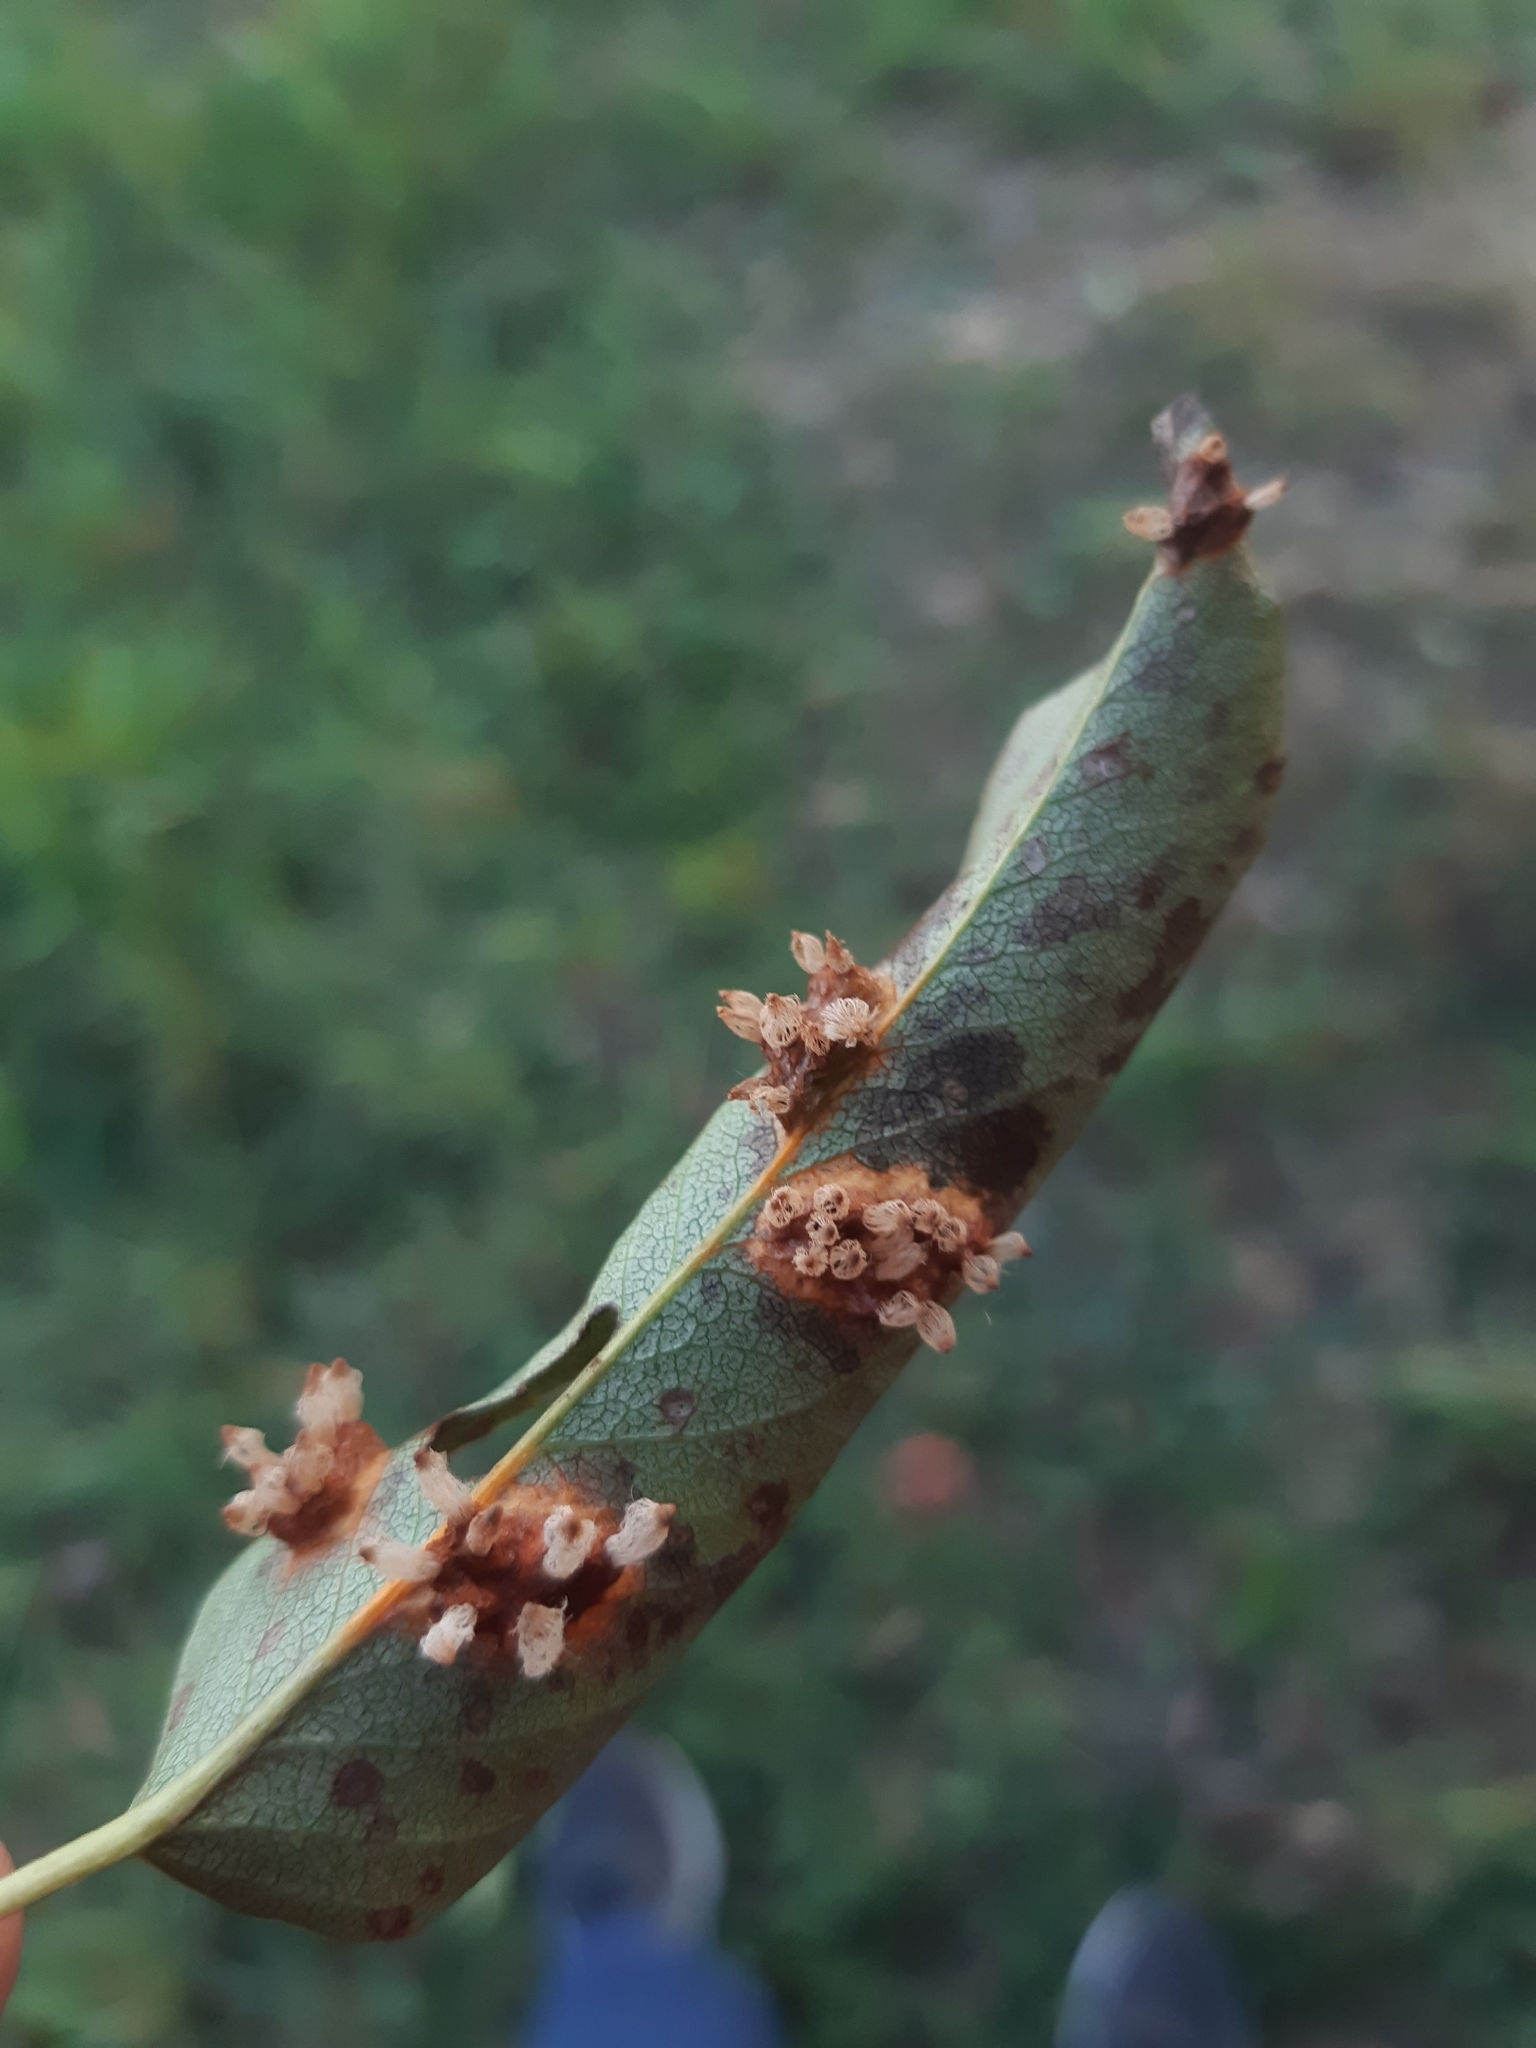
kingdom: Fungi
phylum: Basidiomycota
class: Pucciniomycetes
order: Pucciniales
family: Gymnosporangiaceae
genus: Gymnosporangium
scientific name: Gymnosporangium sabinae
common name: Pear trellis rust fungus
